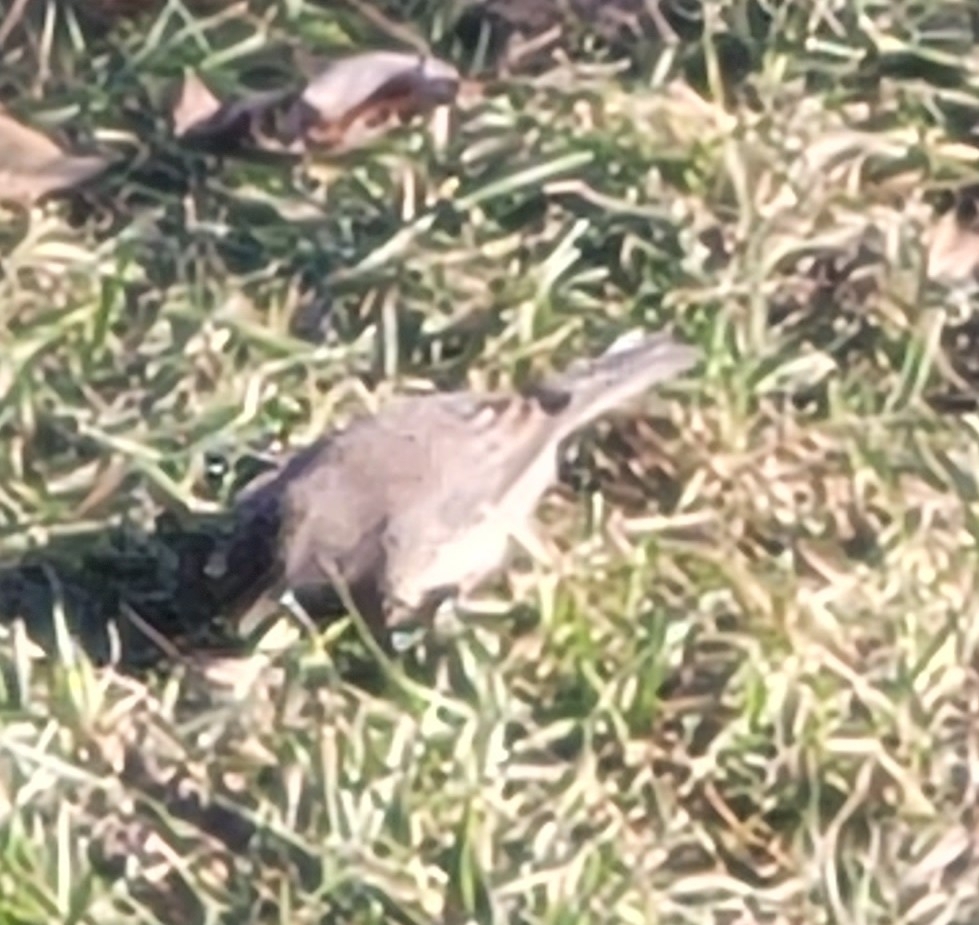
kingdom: Animalia
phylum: Chordata
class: Aves
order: Passeriformes
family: Passerellidae
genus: Junco
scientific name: Junco hyemalis
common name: Dark-eyed junco
